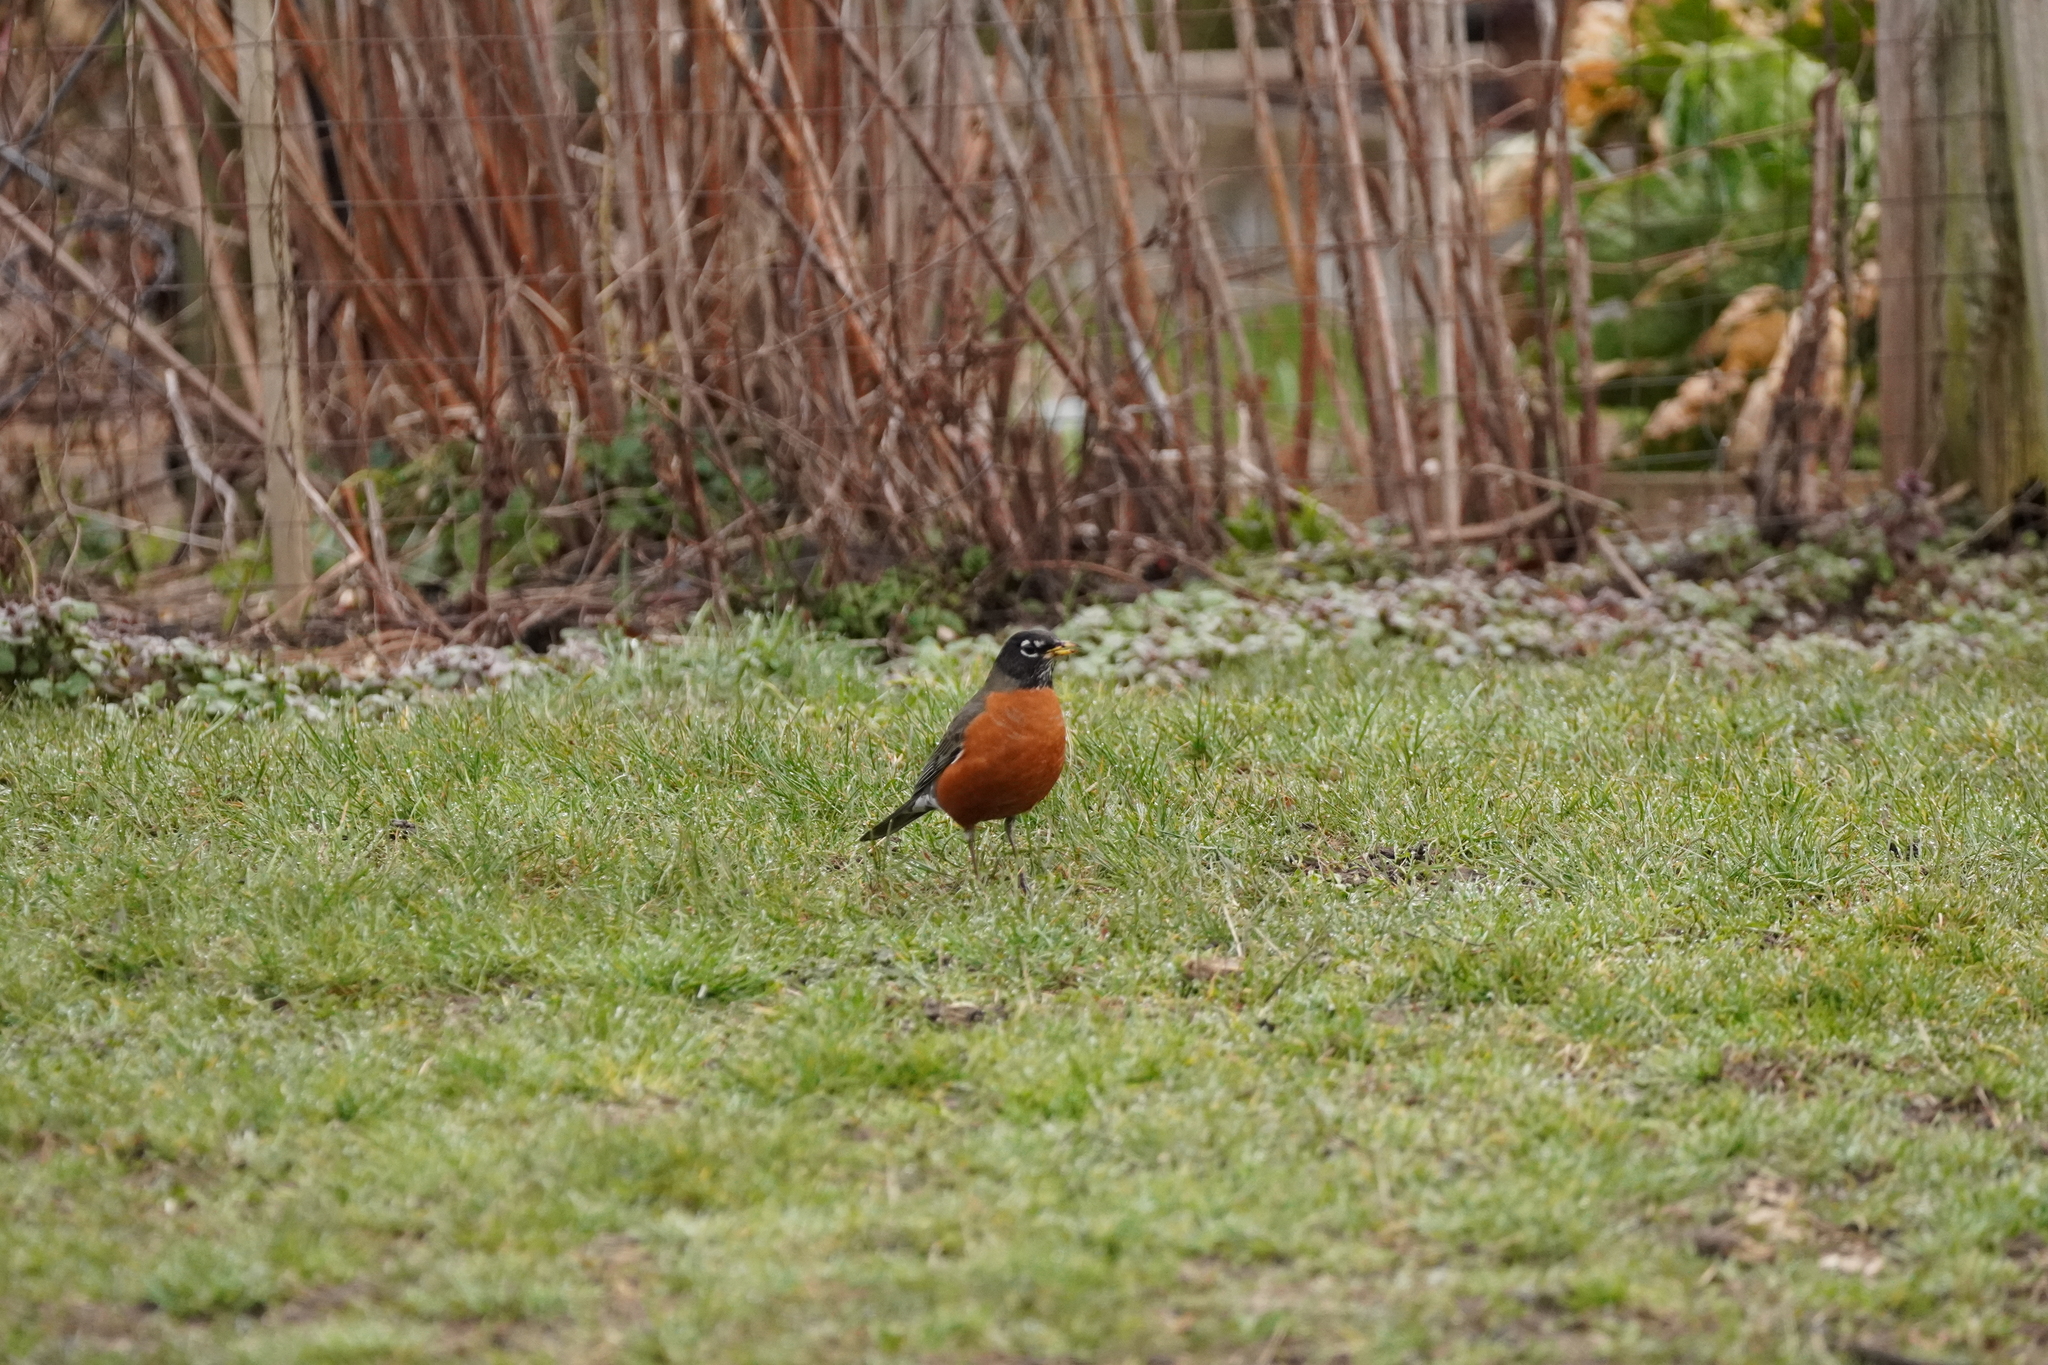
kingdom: Animalia
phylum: Chordata
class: Aves
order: Passeriformes
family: Turdidae
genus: Turdus
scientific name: Turdus migratorius
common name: American robin
